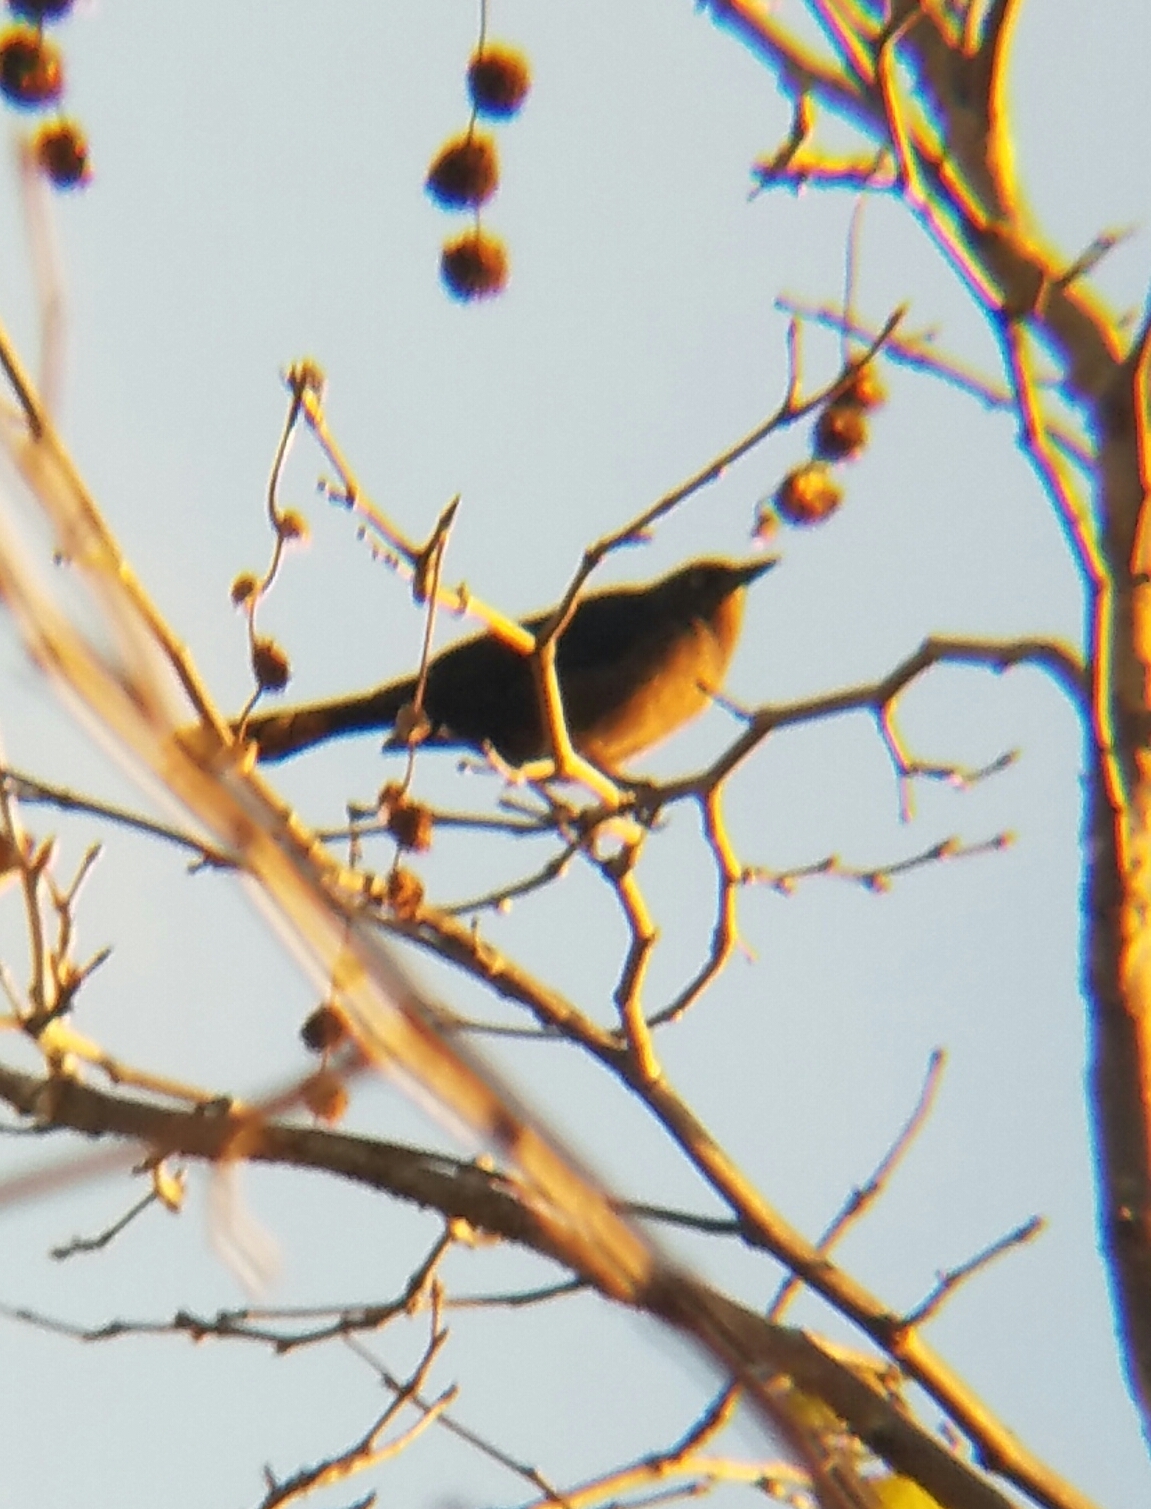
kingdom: Animalia
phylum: Chordata
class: Aves
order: Passeriformes
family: Icteridae
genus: Quiscalus
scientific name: Quiscalus mexicanus
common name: Great-tailed grackle
